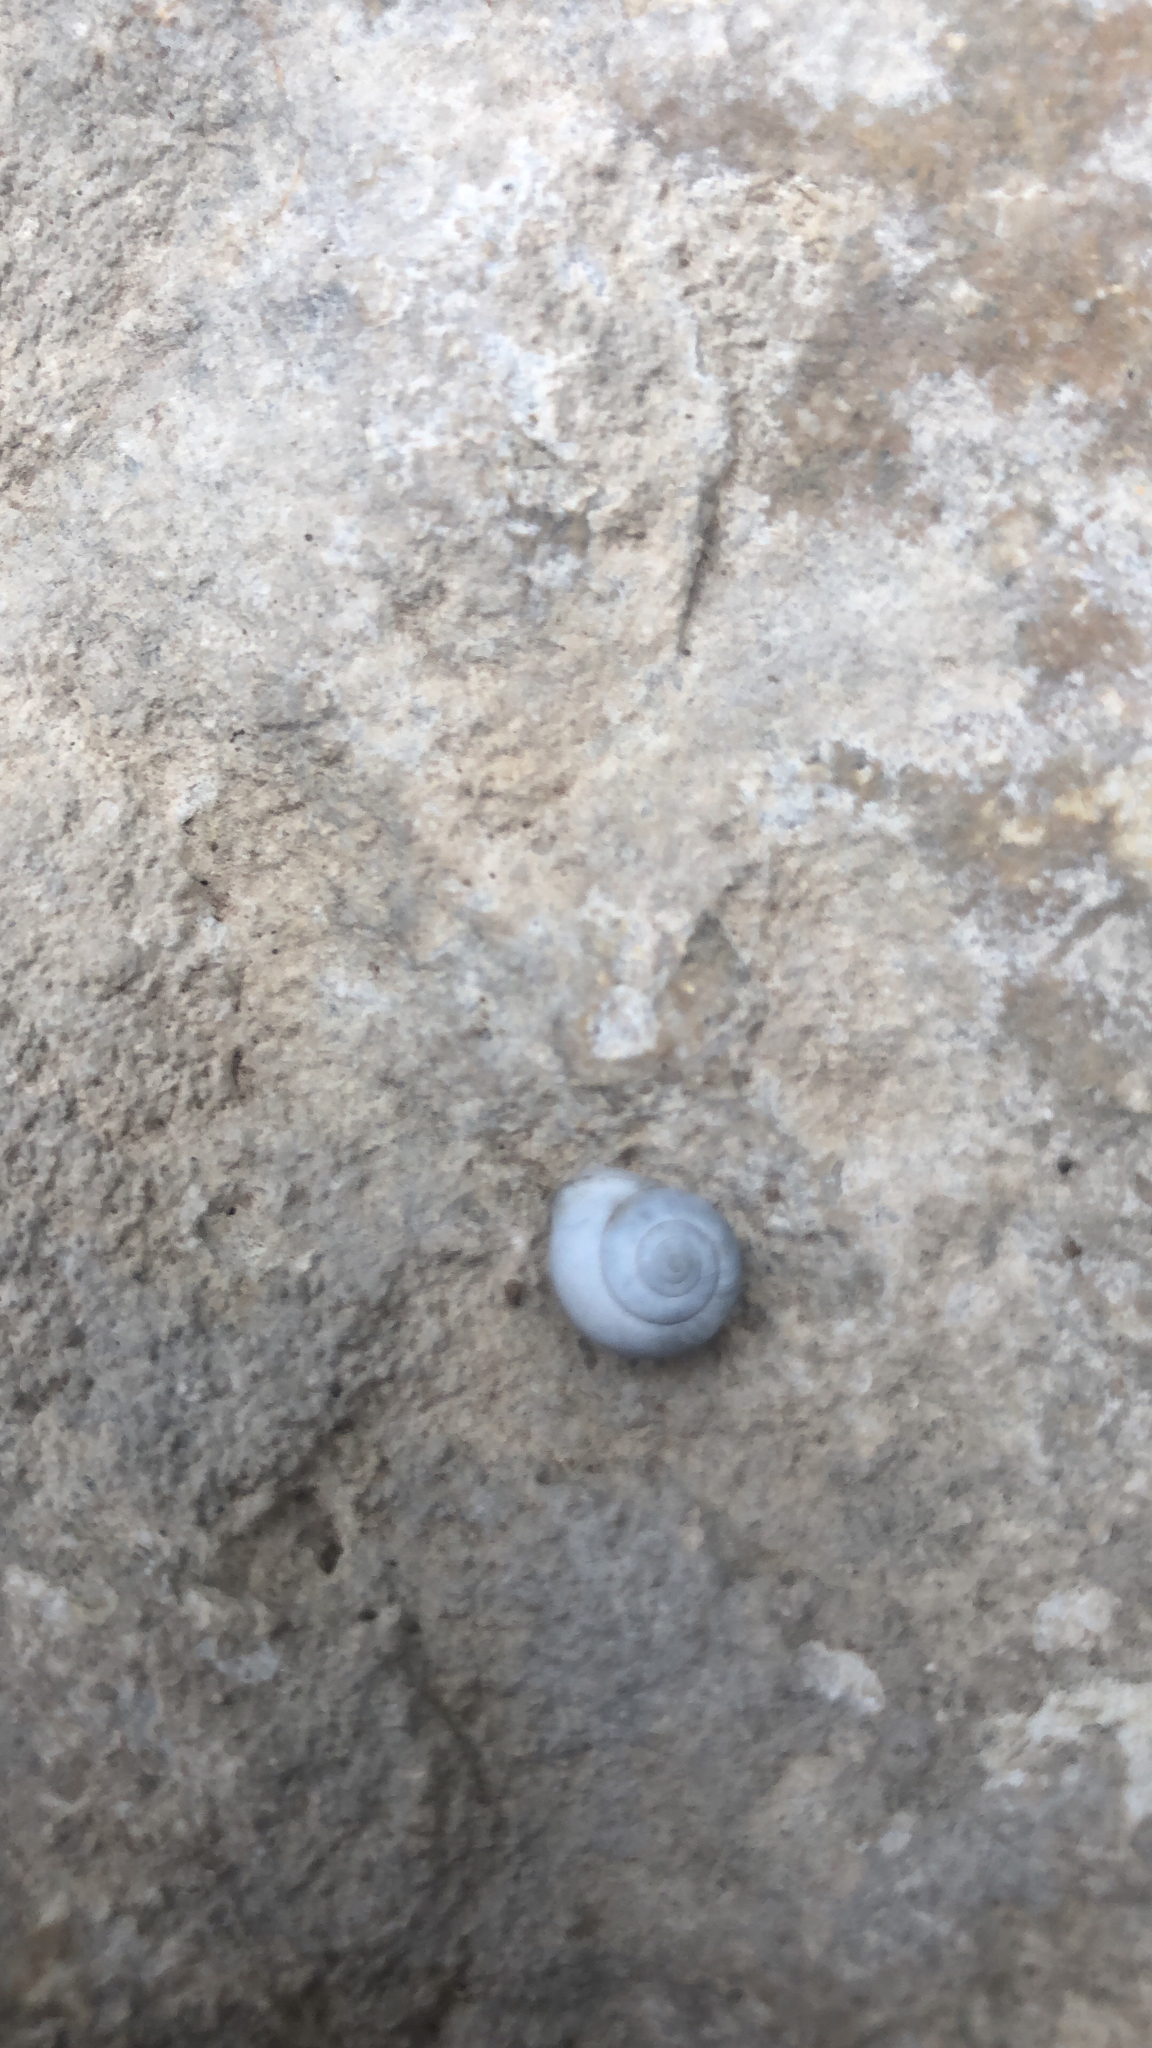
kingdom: Animalia
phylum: Mollusca
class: Gastropoda
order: Cycloneritida
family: Helicinidae
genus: Helicina
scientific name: Helicina orbiculata
